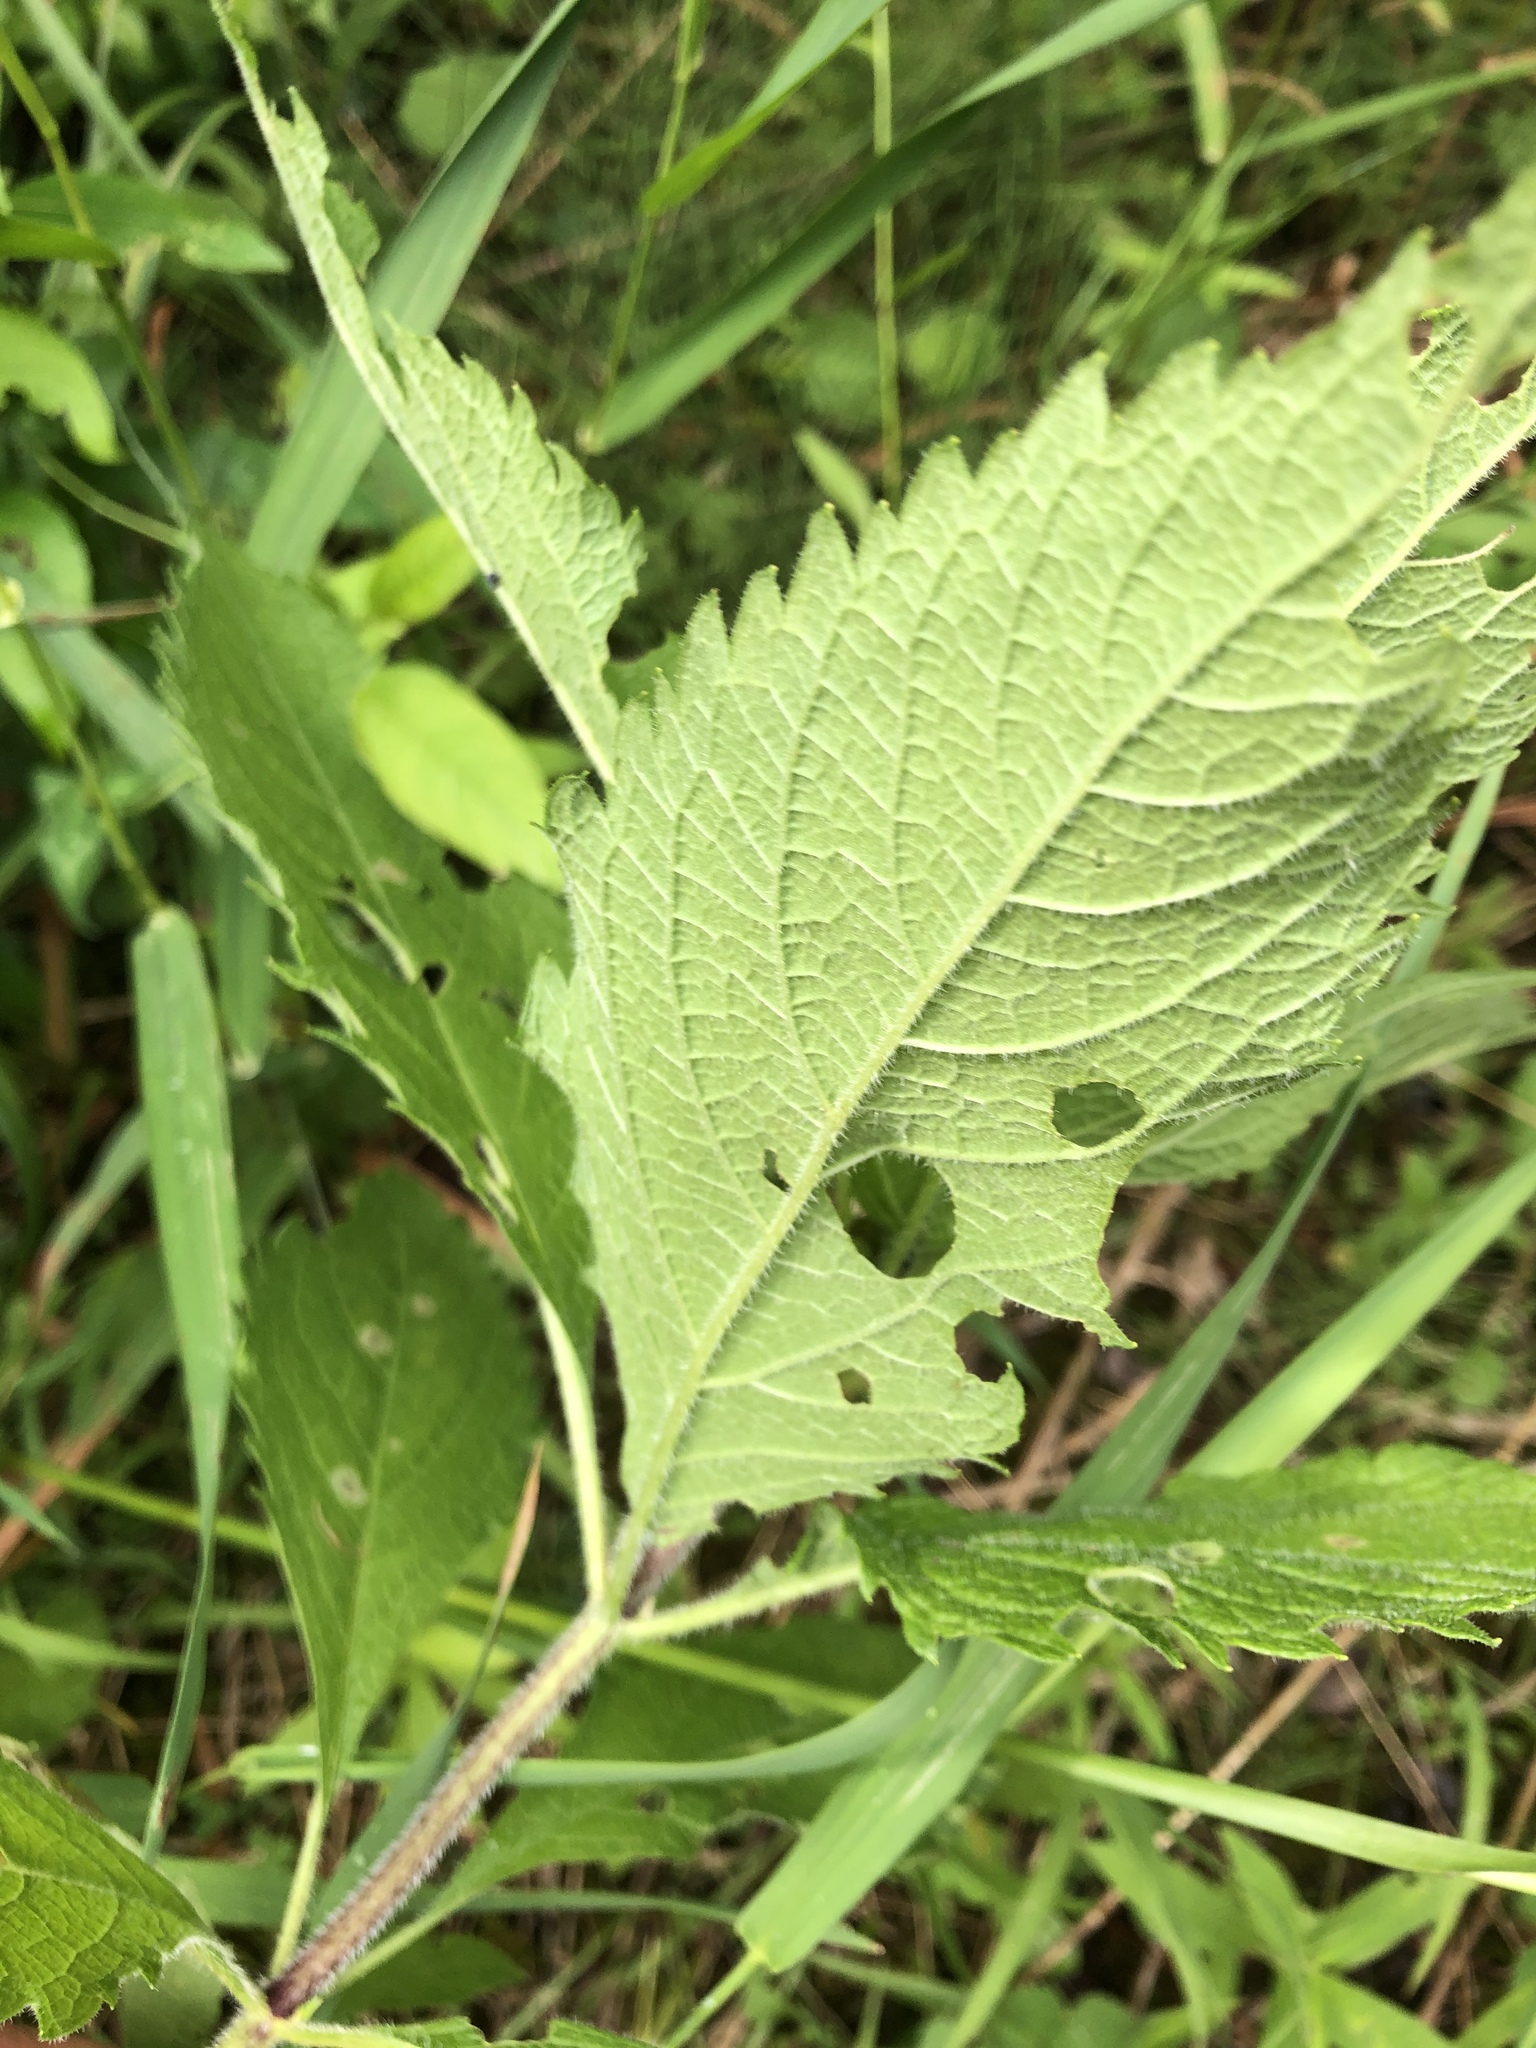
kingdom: Plantae
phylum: Tracheophyta
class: Magnoliopsida
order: Asterales
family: Asteraceae
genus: Eutrochium
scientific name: Eutrochium maculatum
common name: Spotted joe pye weed
